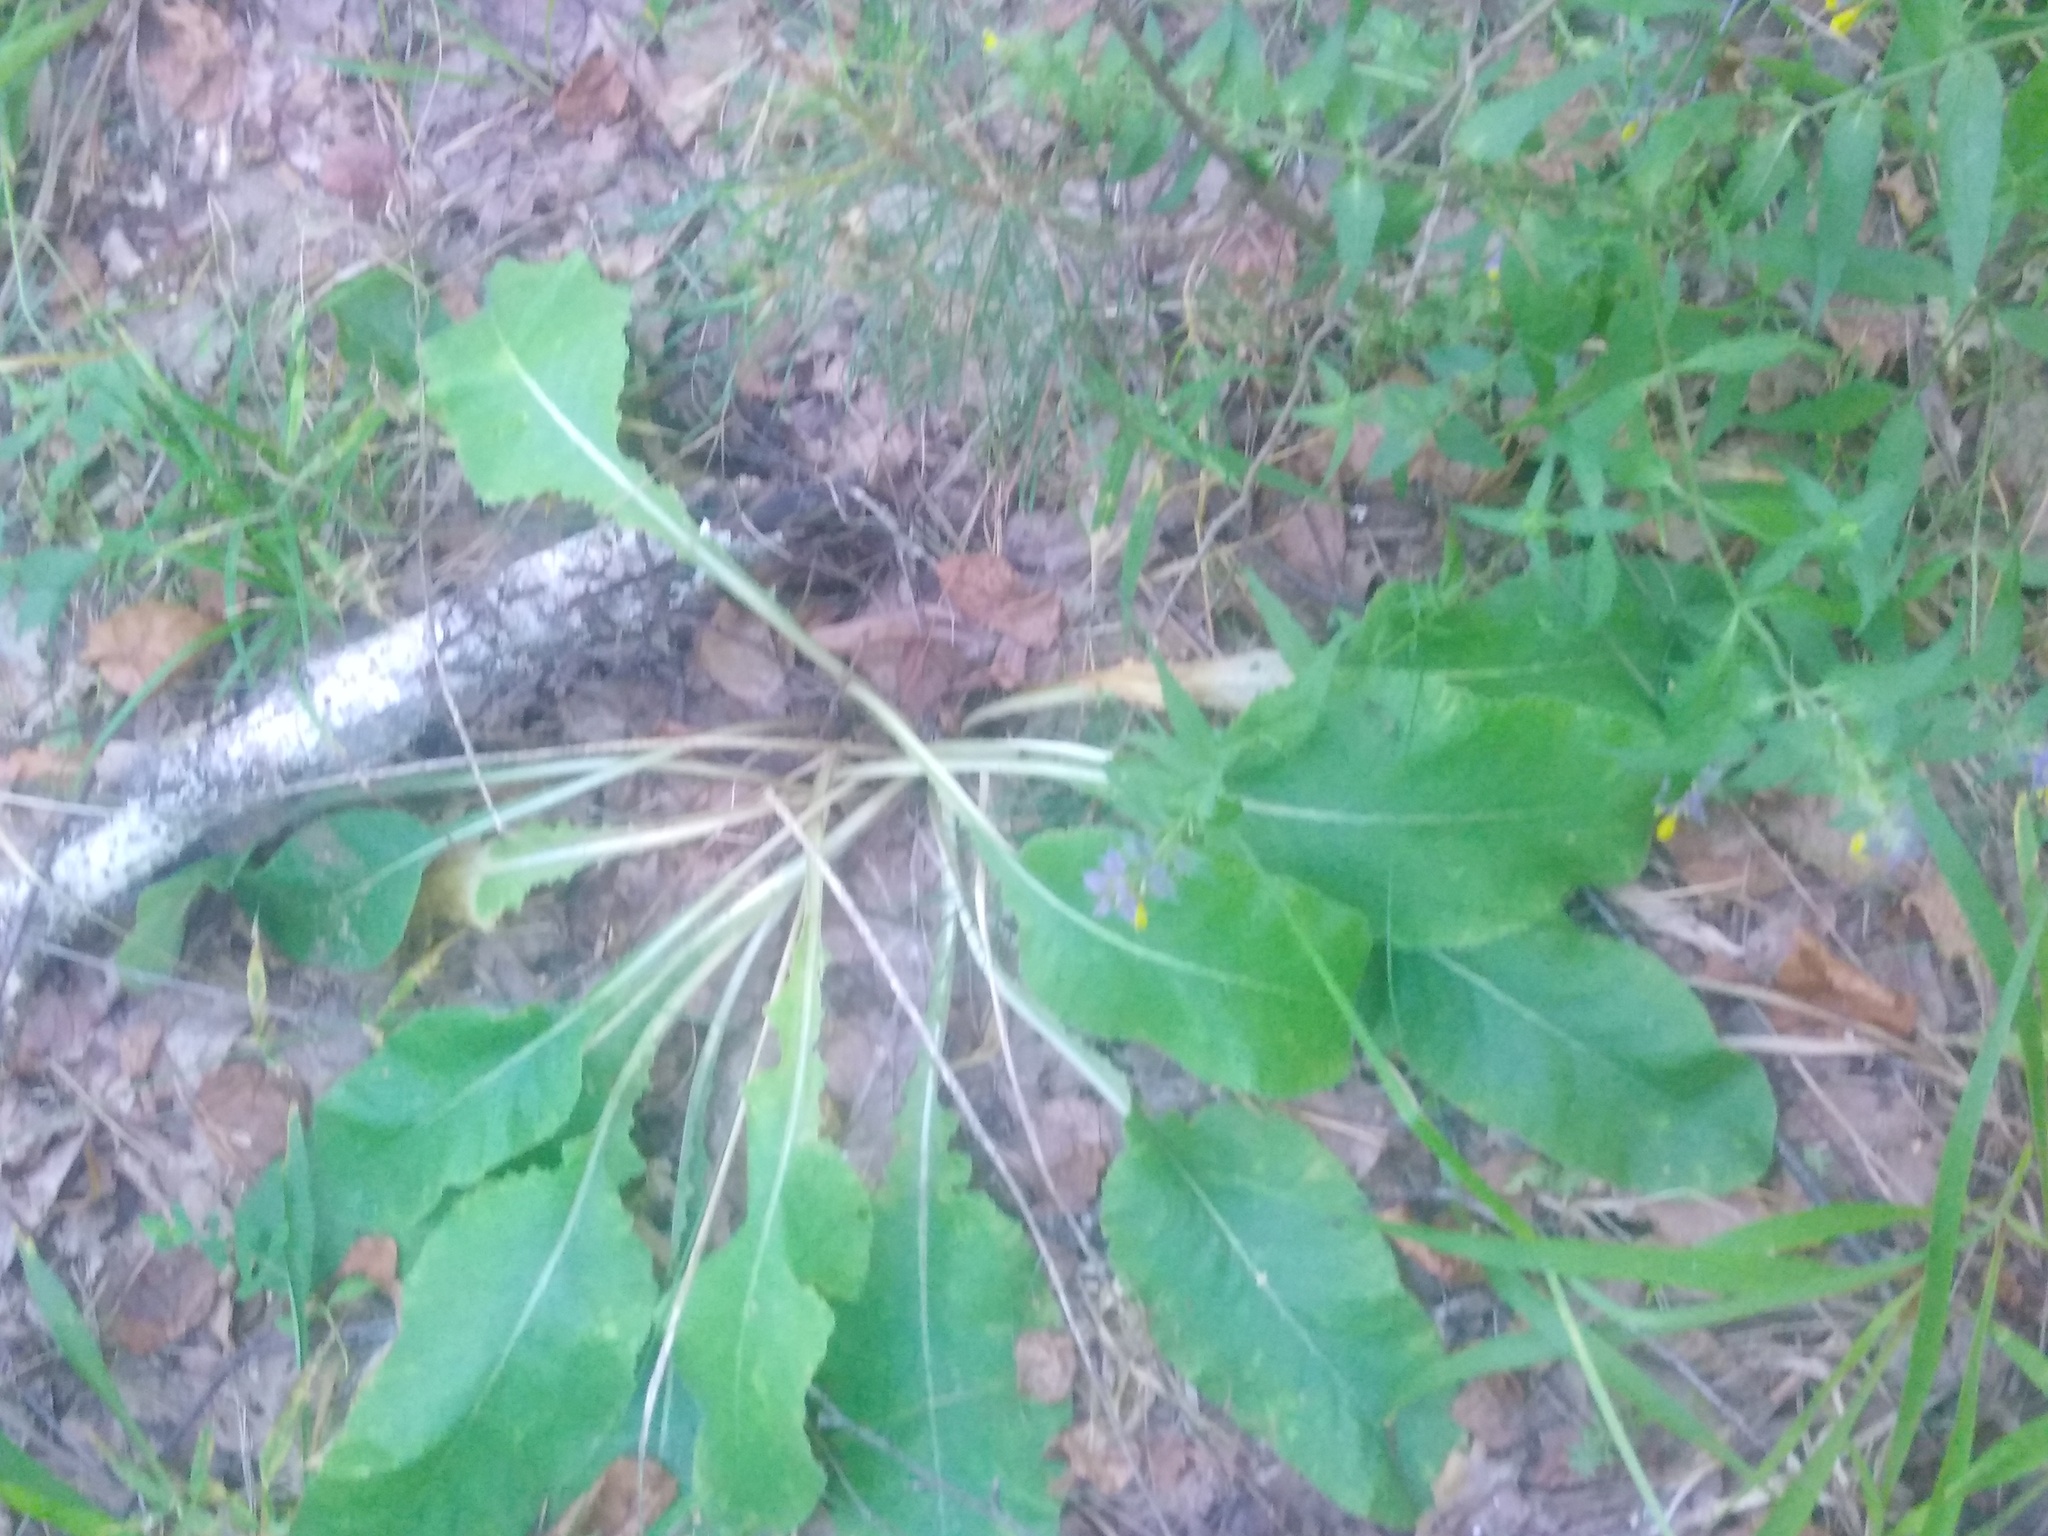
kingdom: Plantae
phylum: Tracheophyta
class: Magnoliopsida
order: Ericales
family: Primulaceae
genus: Primula
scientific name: Primula veris
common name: Cowslip
